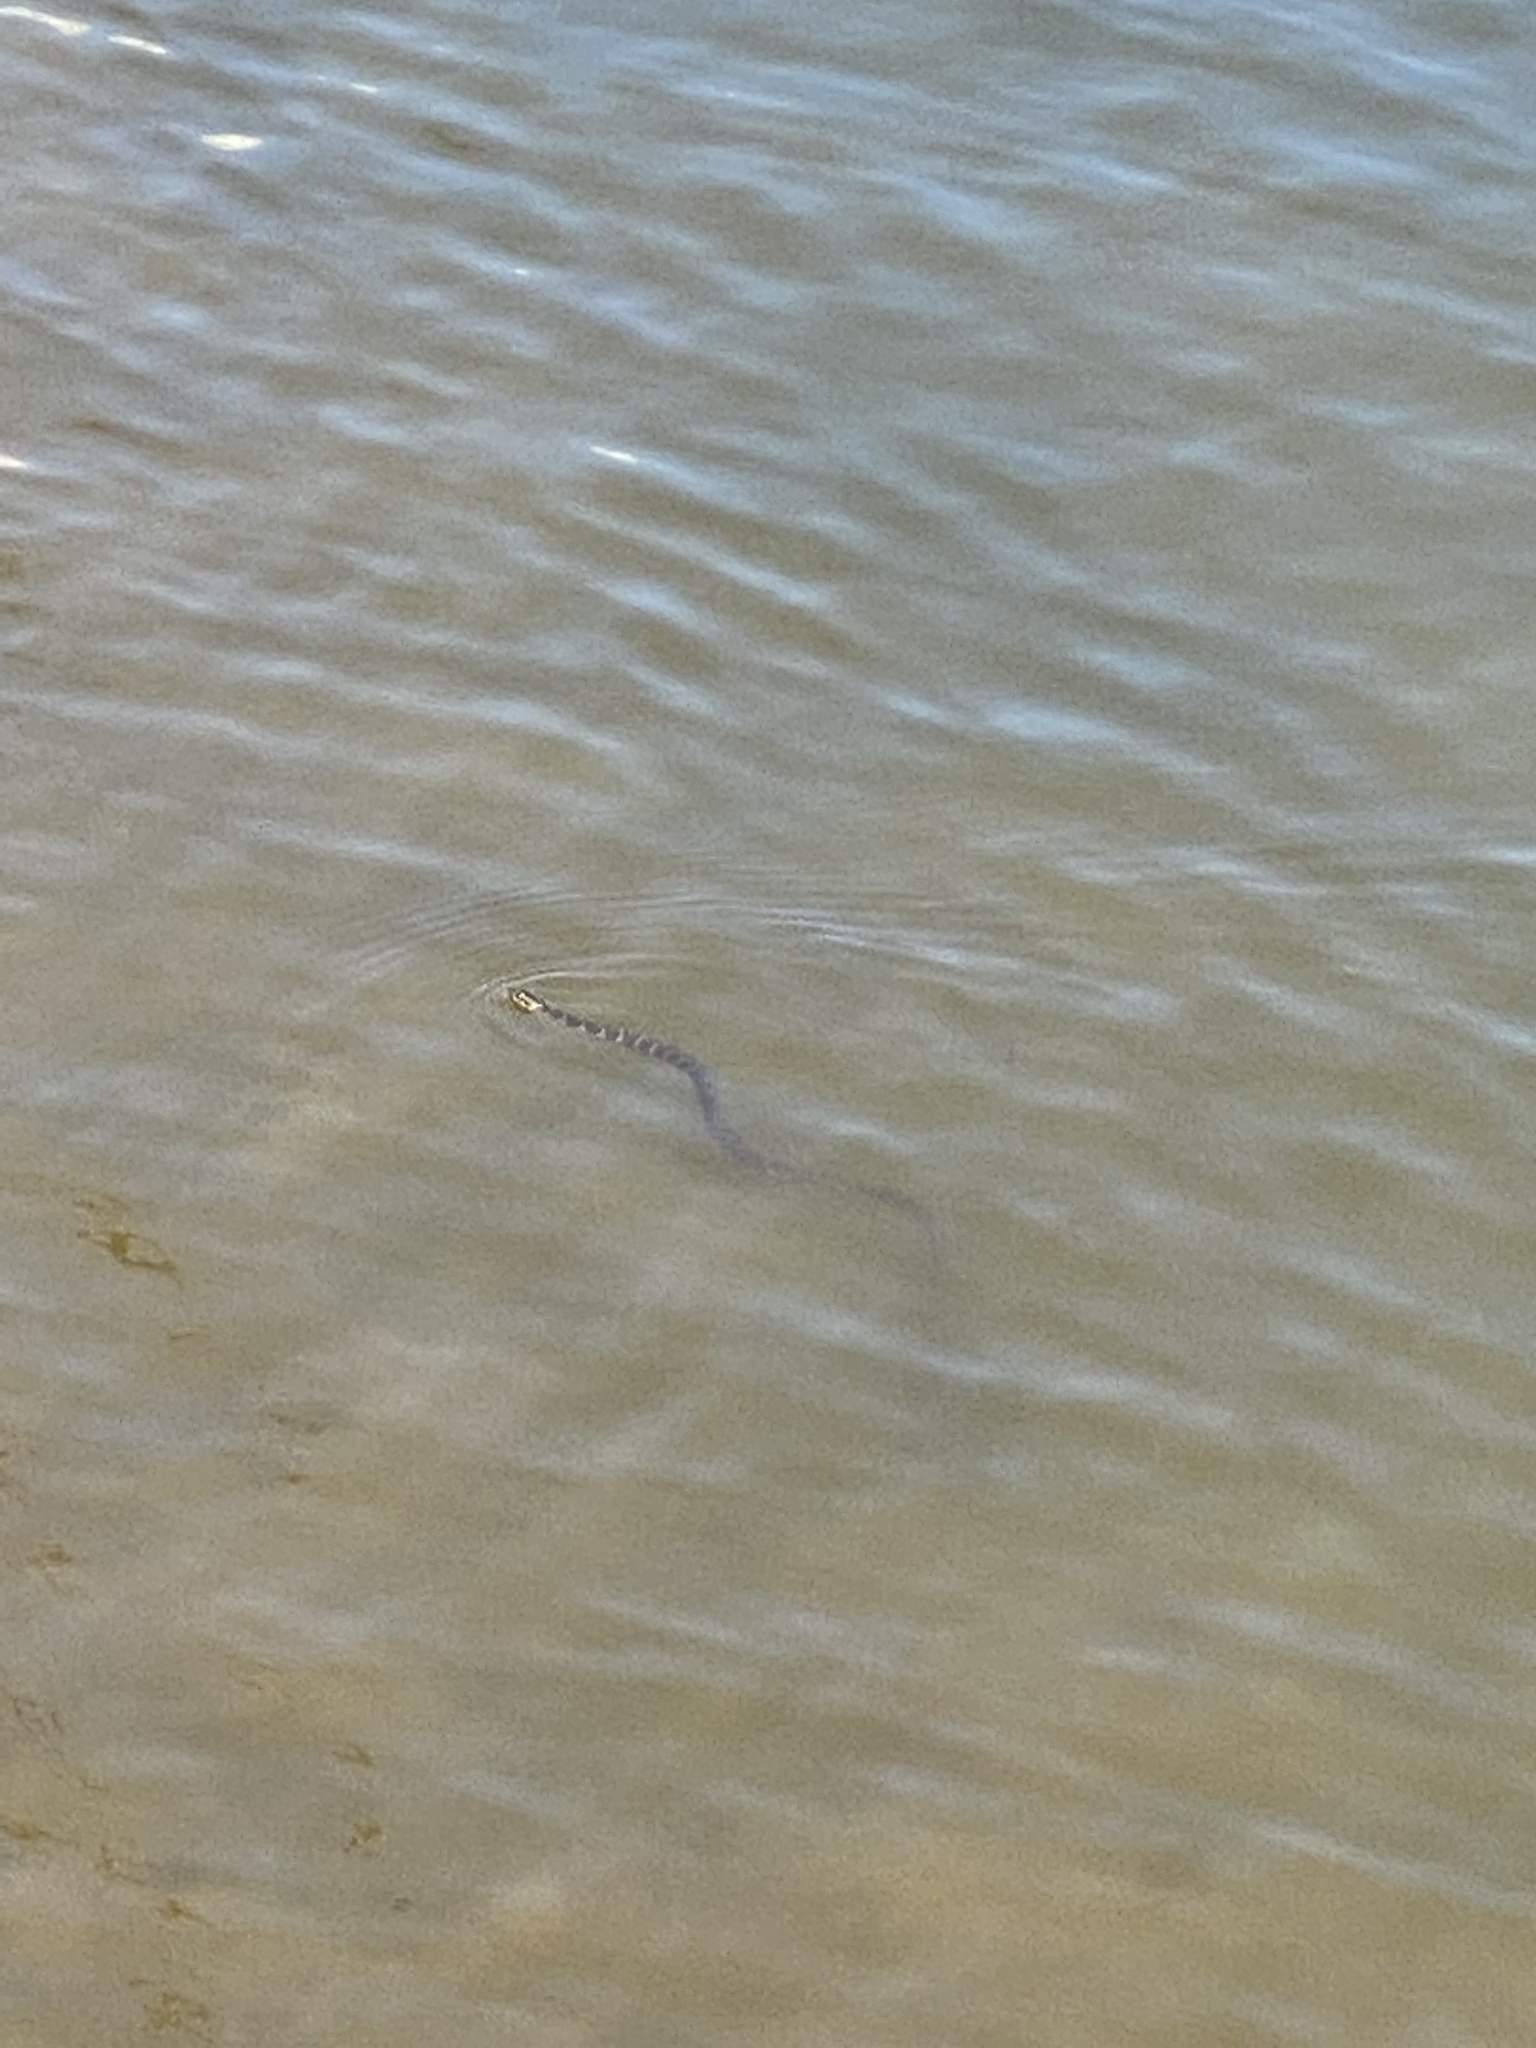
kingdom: Animalia
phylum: Chordata
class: Squamata
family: Colubridae
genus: Nerodia
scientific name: Nerodia sipedon
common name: Northern water snake
